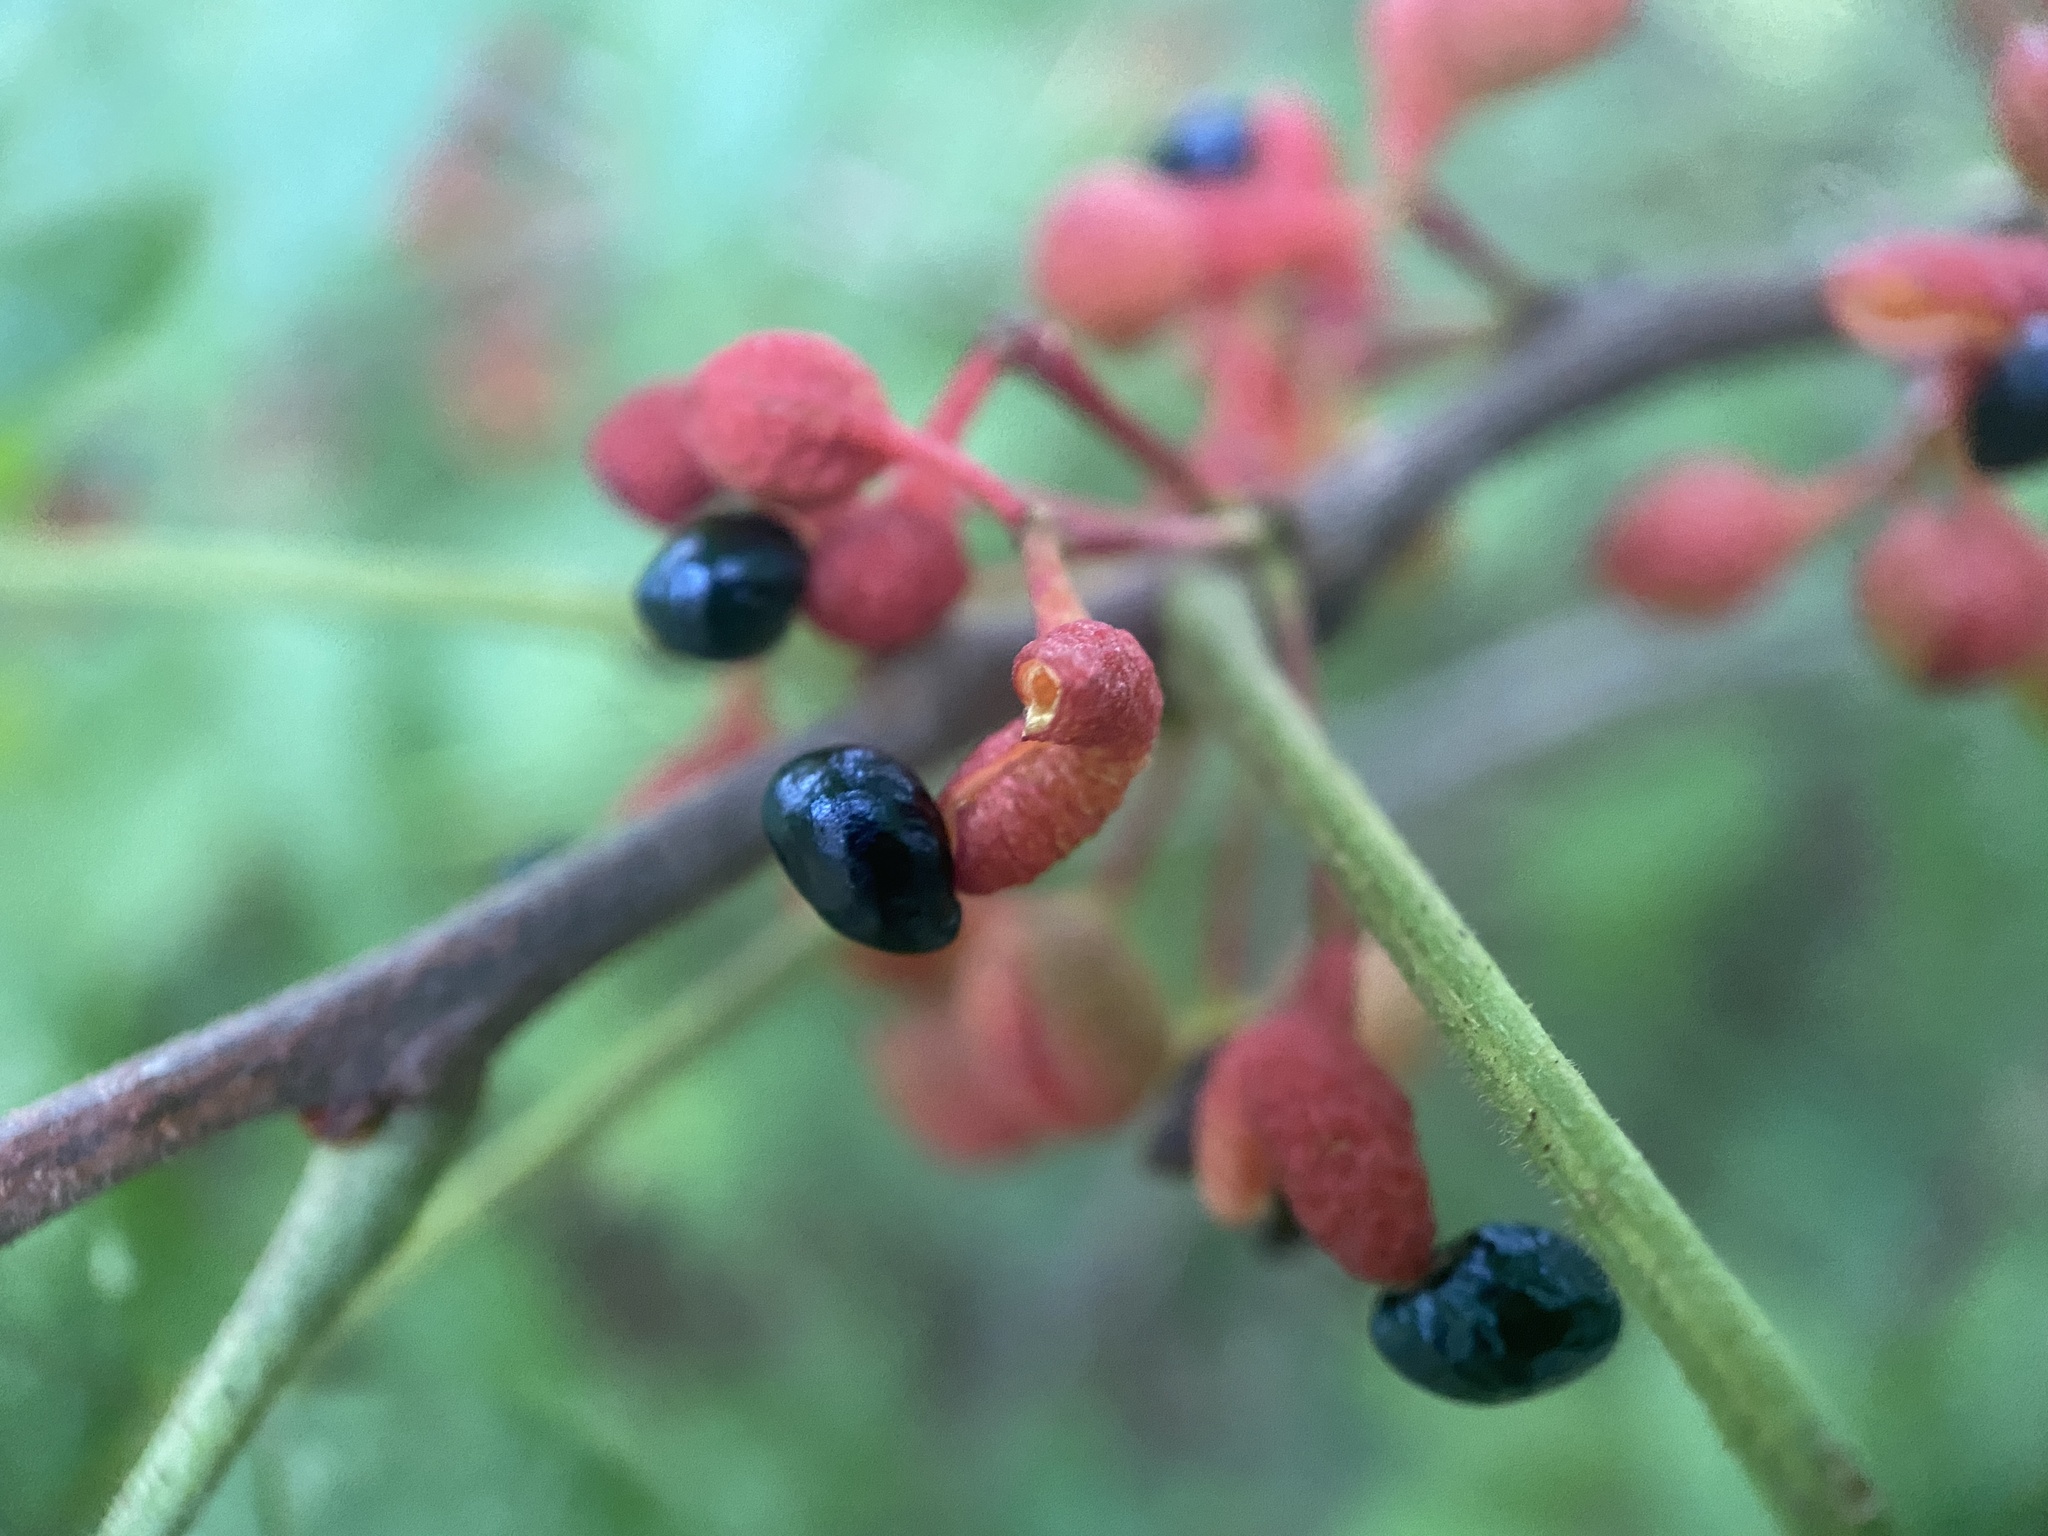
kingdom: Plantae
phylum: Tracheophyta
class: Magnoliopsida
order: Sapindales
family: Rutaceae
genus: Zanthoxylum
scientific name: Zanthoxylum americanum
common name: Northern prickly-ash
